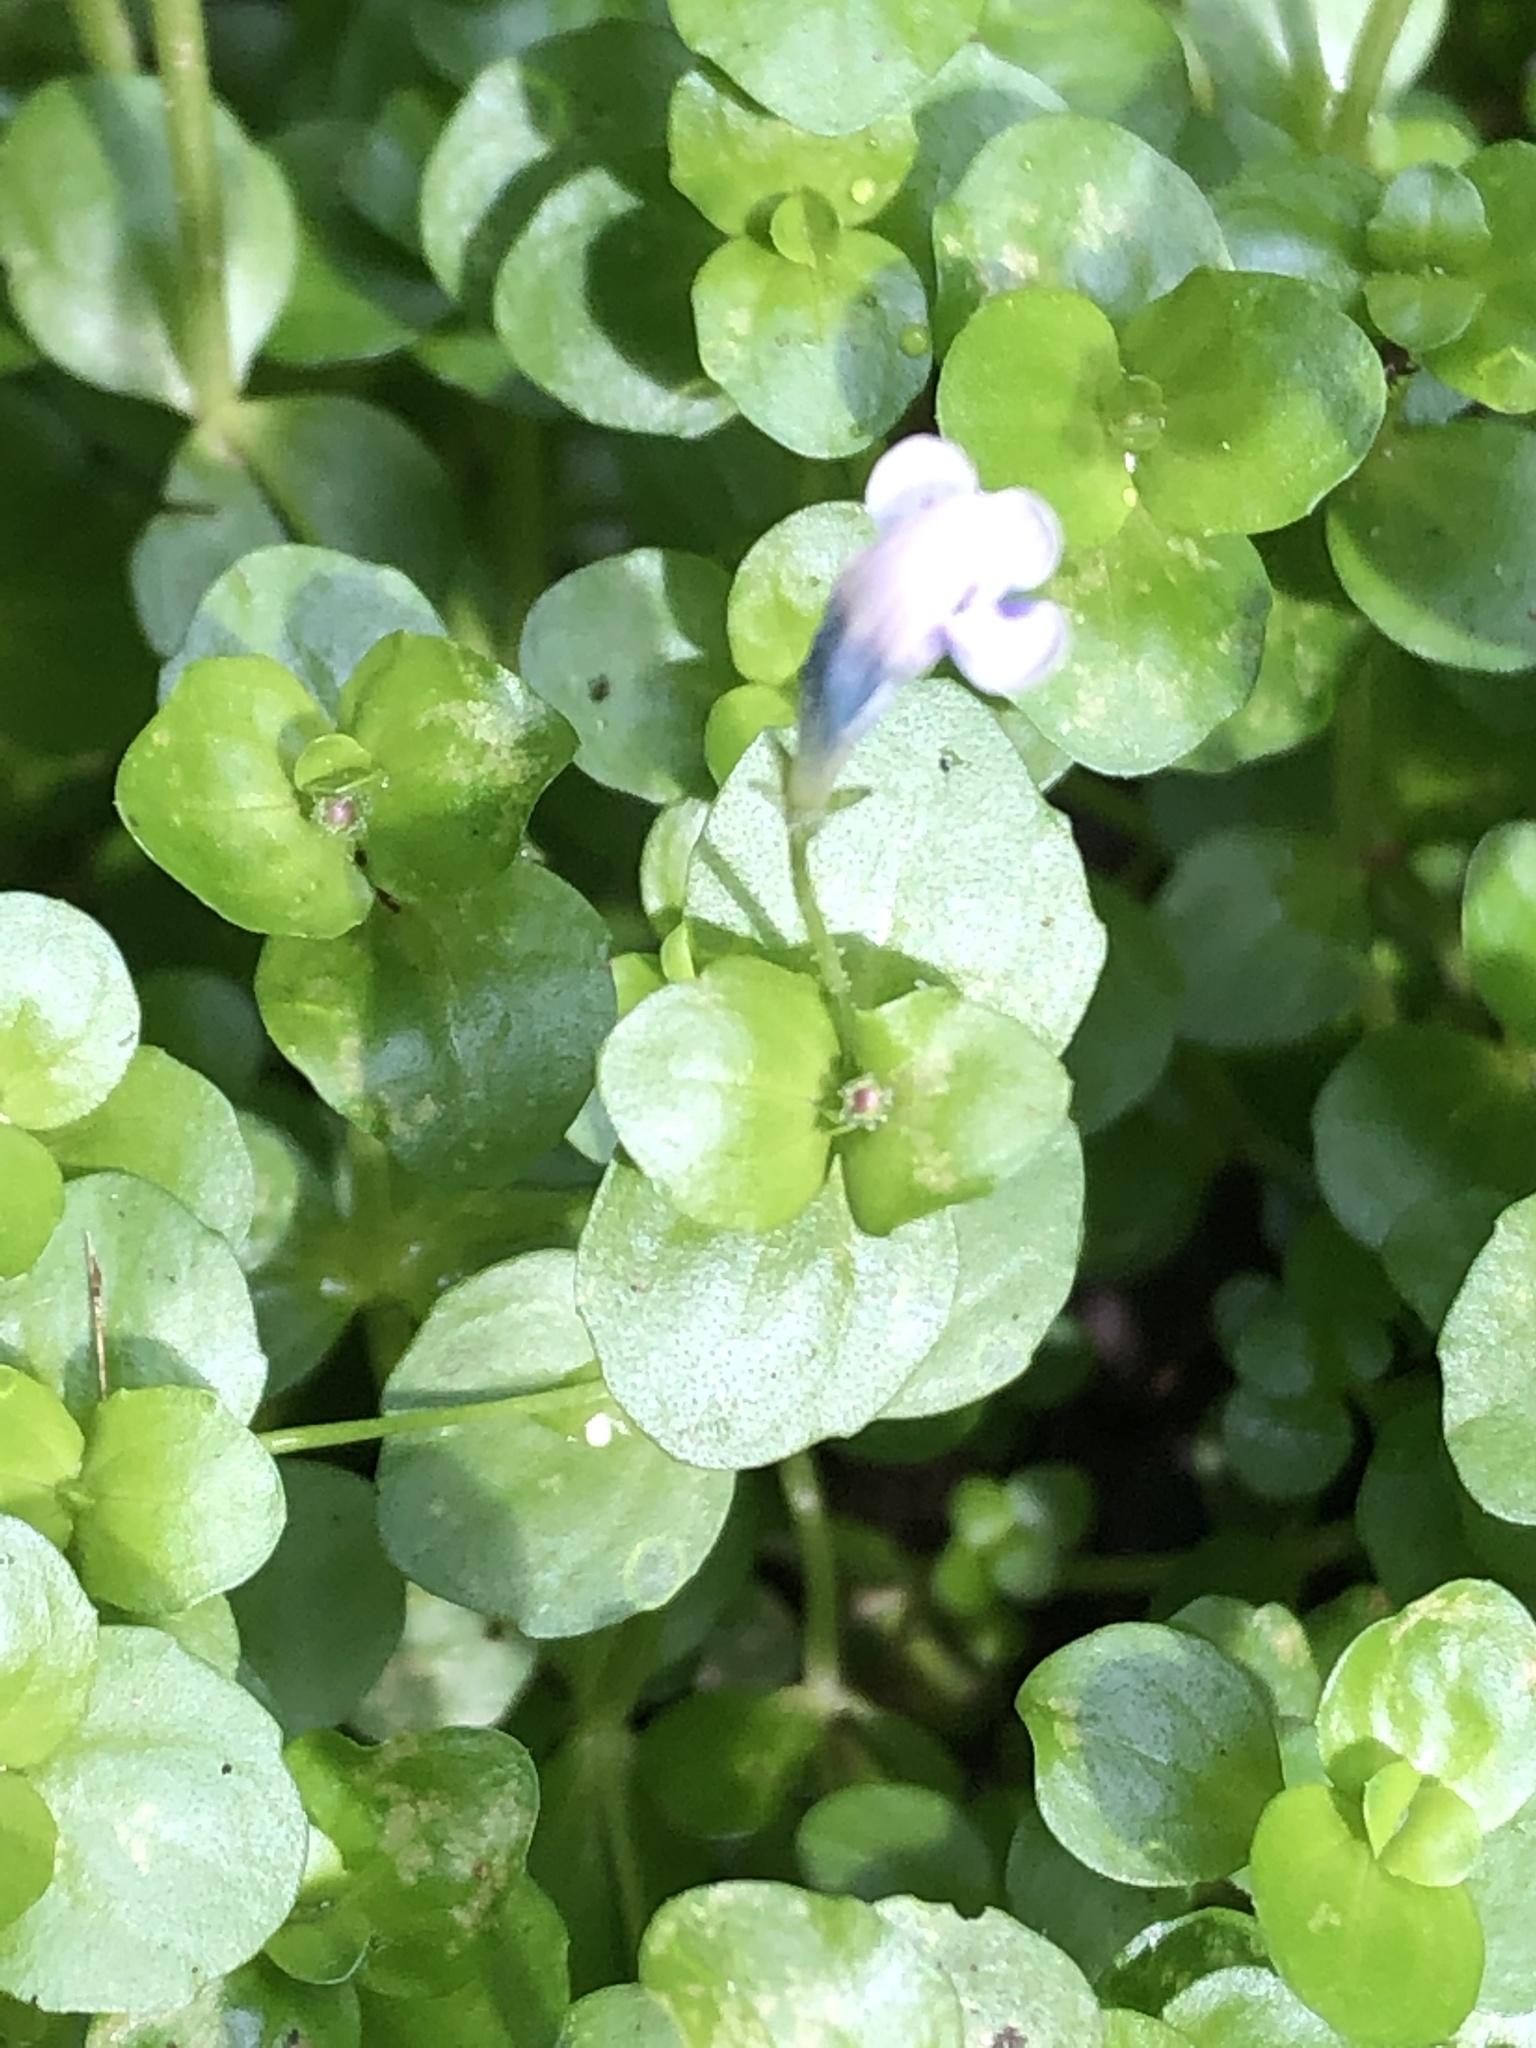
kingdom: Plantae
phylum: Tracheophyta
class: Magnoliopsida
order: Lamiales
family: Linderniaceae
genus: Torenia
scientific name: Torenia crustacea
